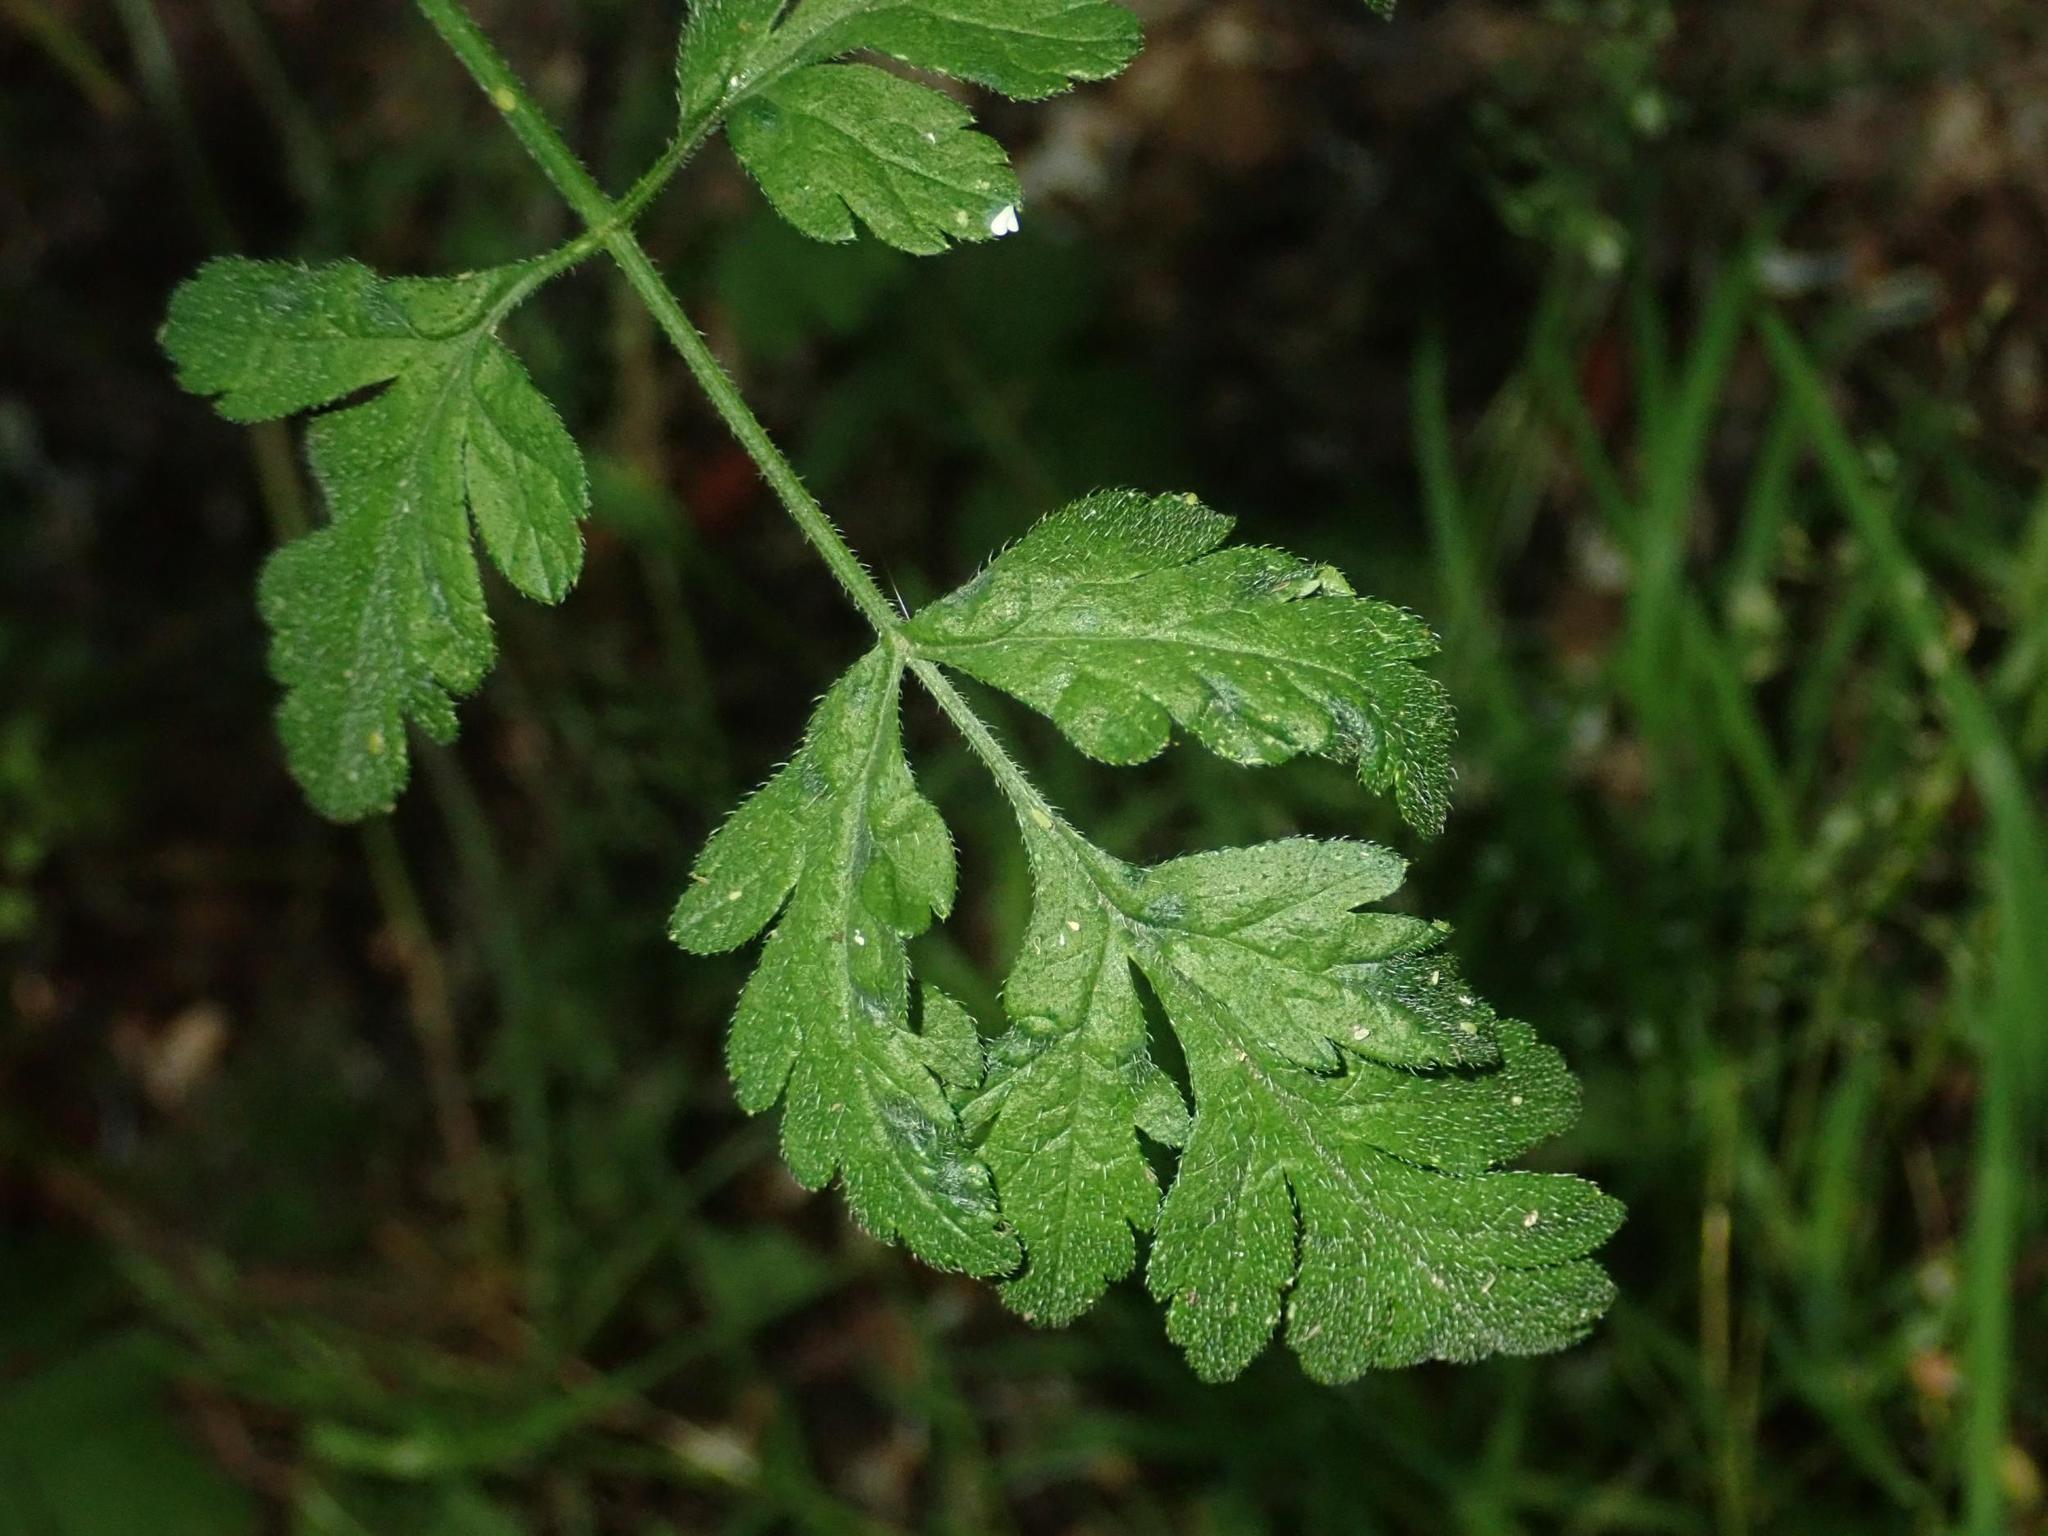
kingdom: Plantae
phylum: Tracheophyta
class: Magnoliopsida
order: Apiales
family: Apiaceae
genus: Chaerophyllum
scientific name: Chaerophyllum temulum
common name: Rough chervil
